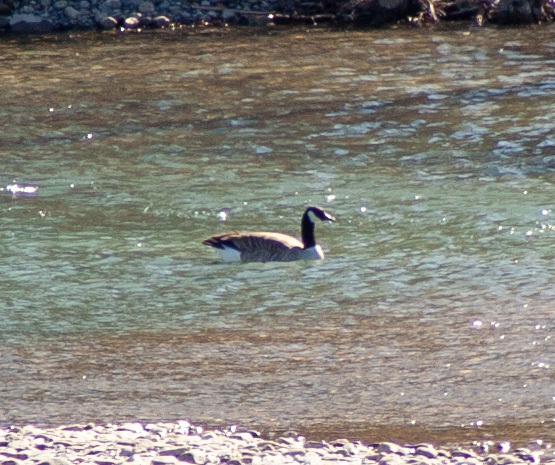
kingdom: Animalia
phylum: Chordata
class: Aves
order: Anseriformes
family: Anatidae
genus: Branta
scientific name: Branta canadensis
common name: Canada goose
